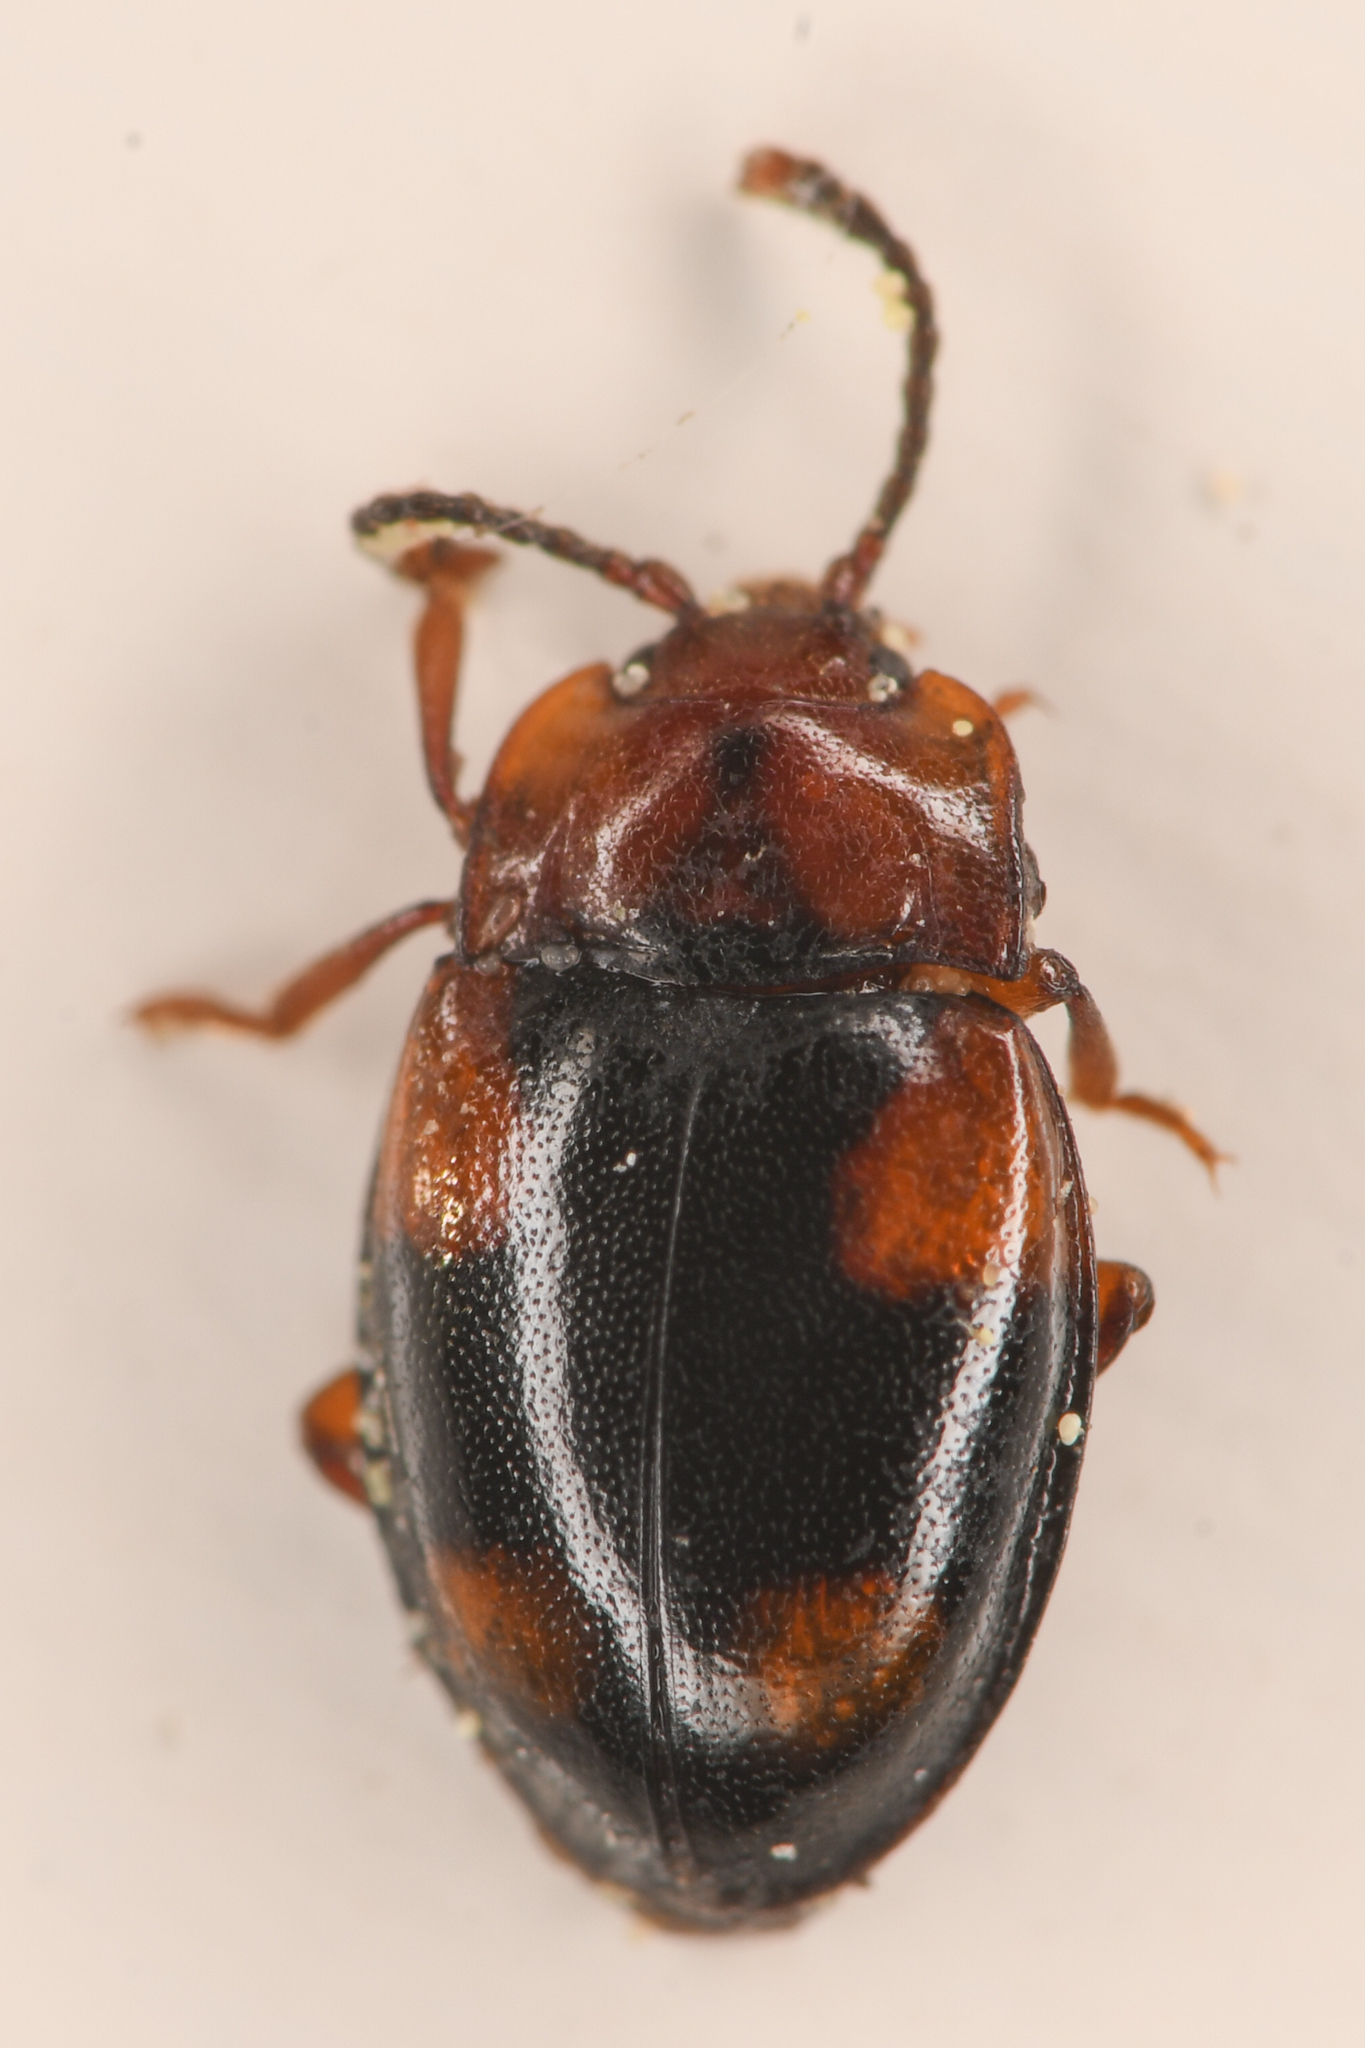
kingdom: Animalia
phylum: Arthropoda
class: Insecta
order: Coleoptera
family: Endomychidae
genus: Mycetina
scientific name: Mycetina idahoensis
